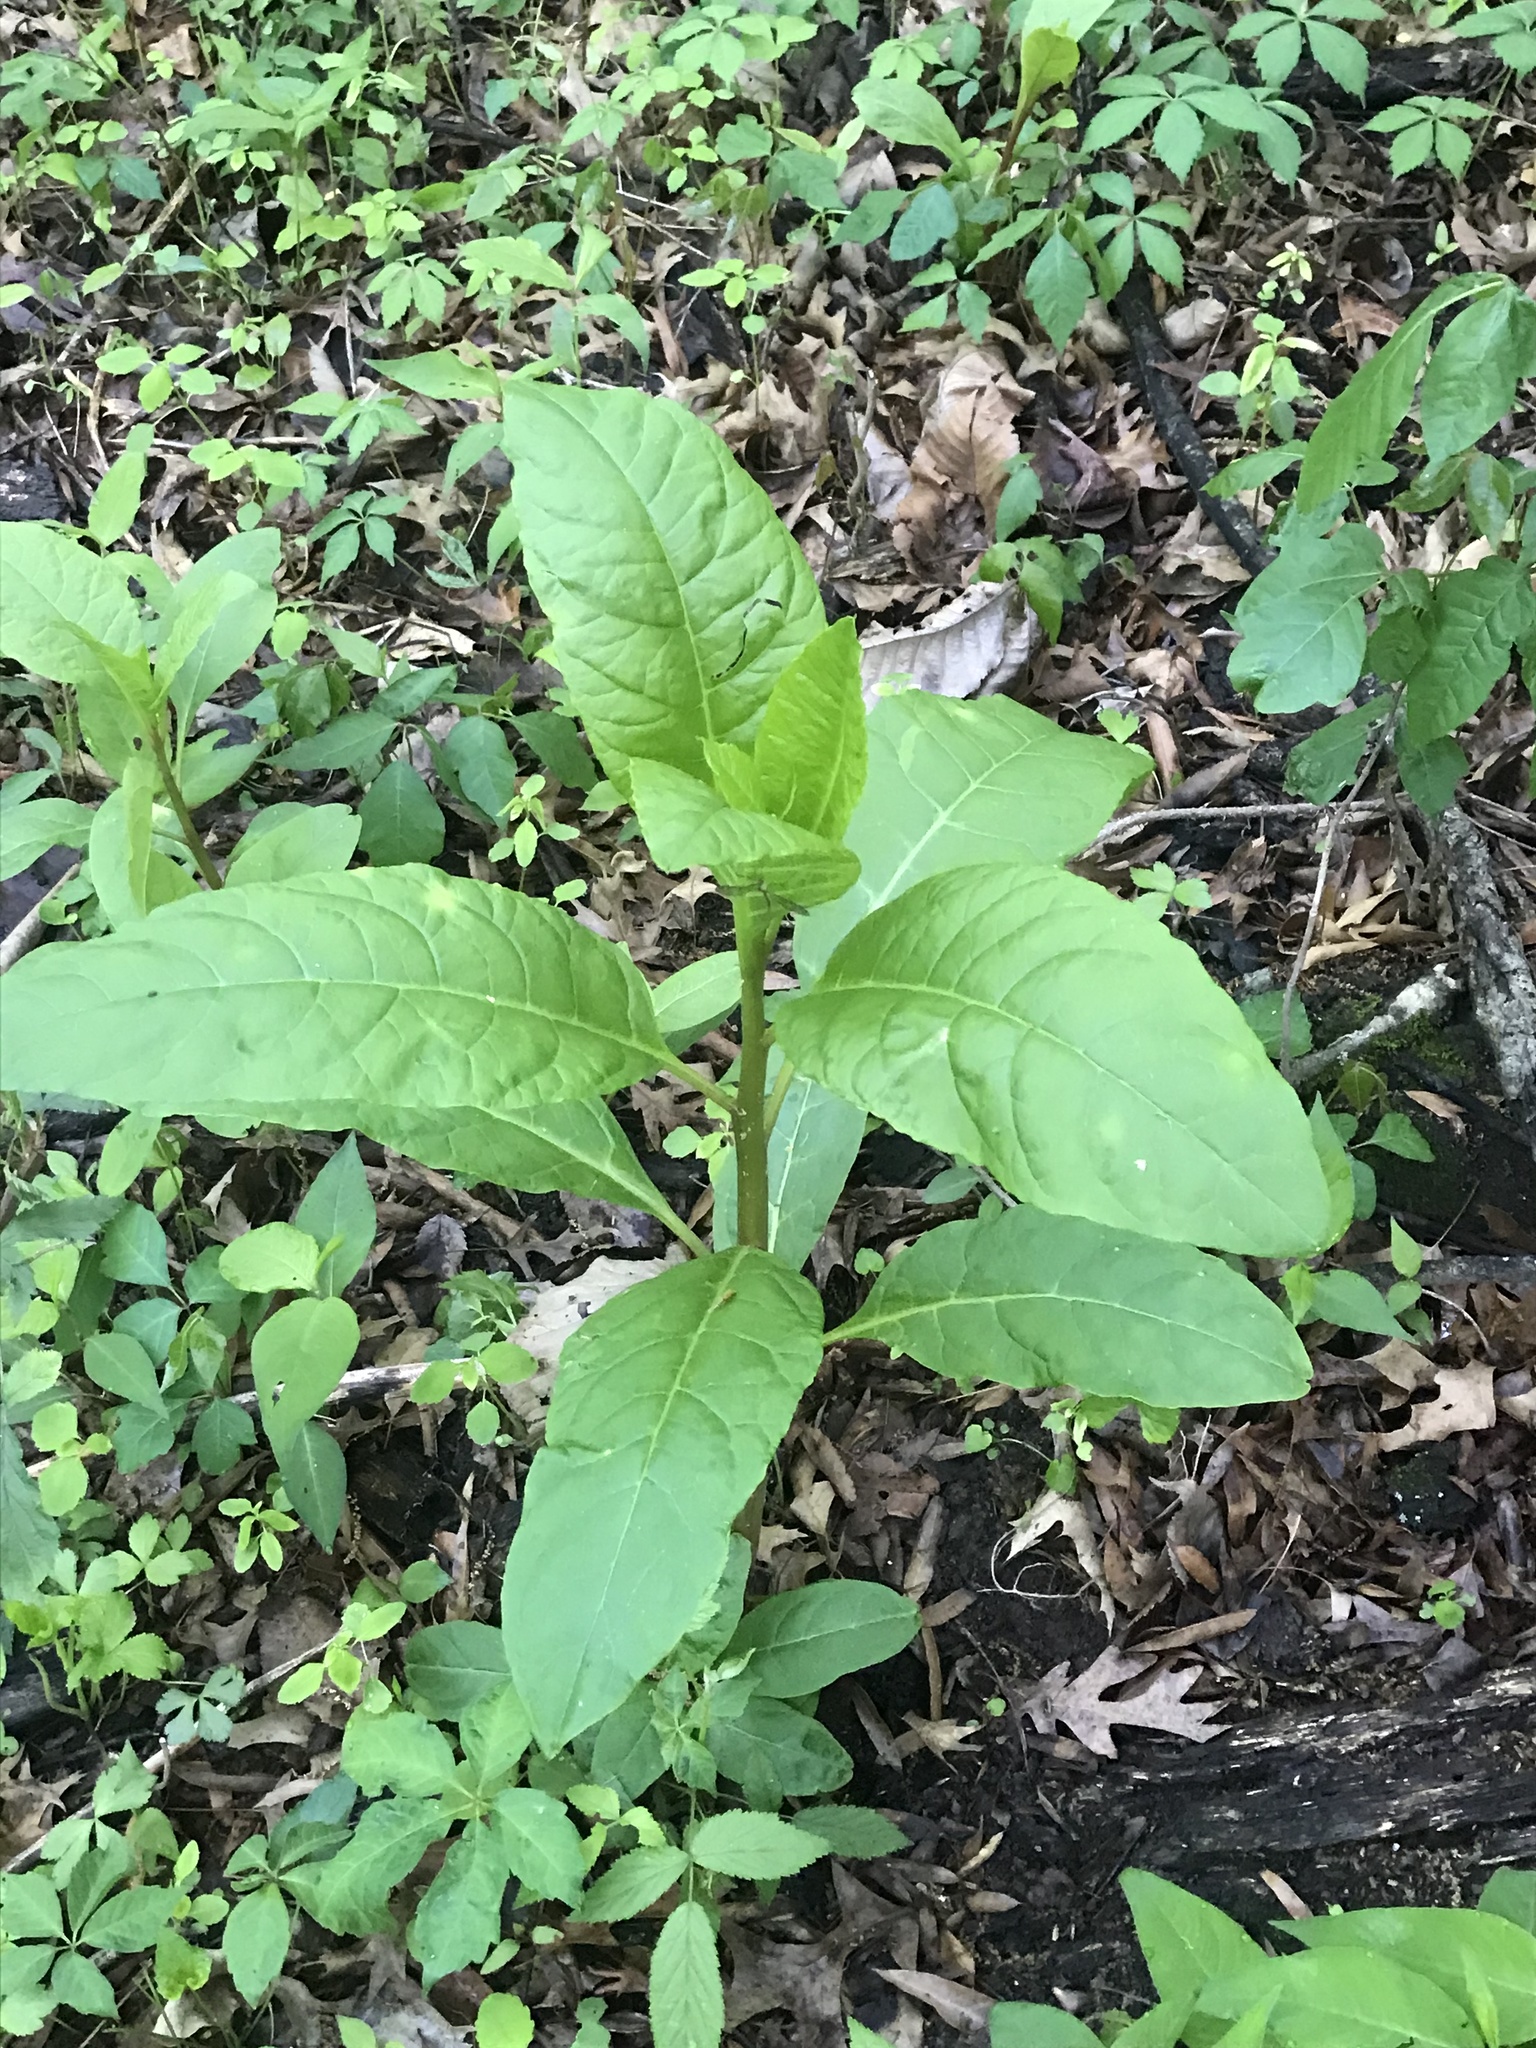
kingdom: Plantae
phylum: Tracheophyta
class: Magnoliopsida
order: Caryophyllales
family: Phytolaccaceae
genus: Phytolacca
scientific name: Phytolacca americana
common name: American pokeweed
